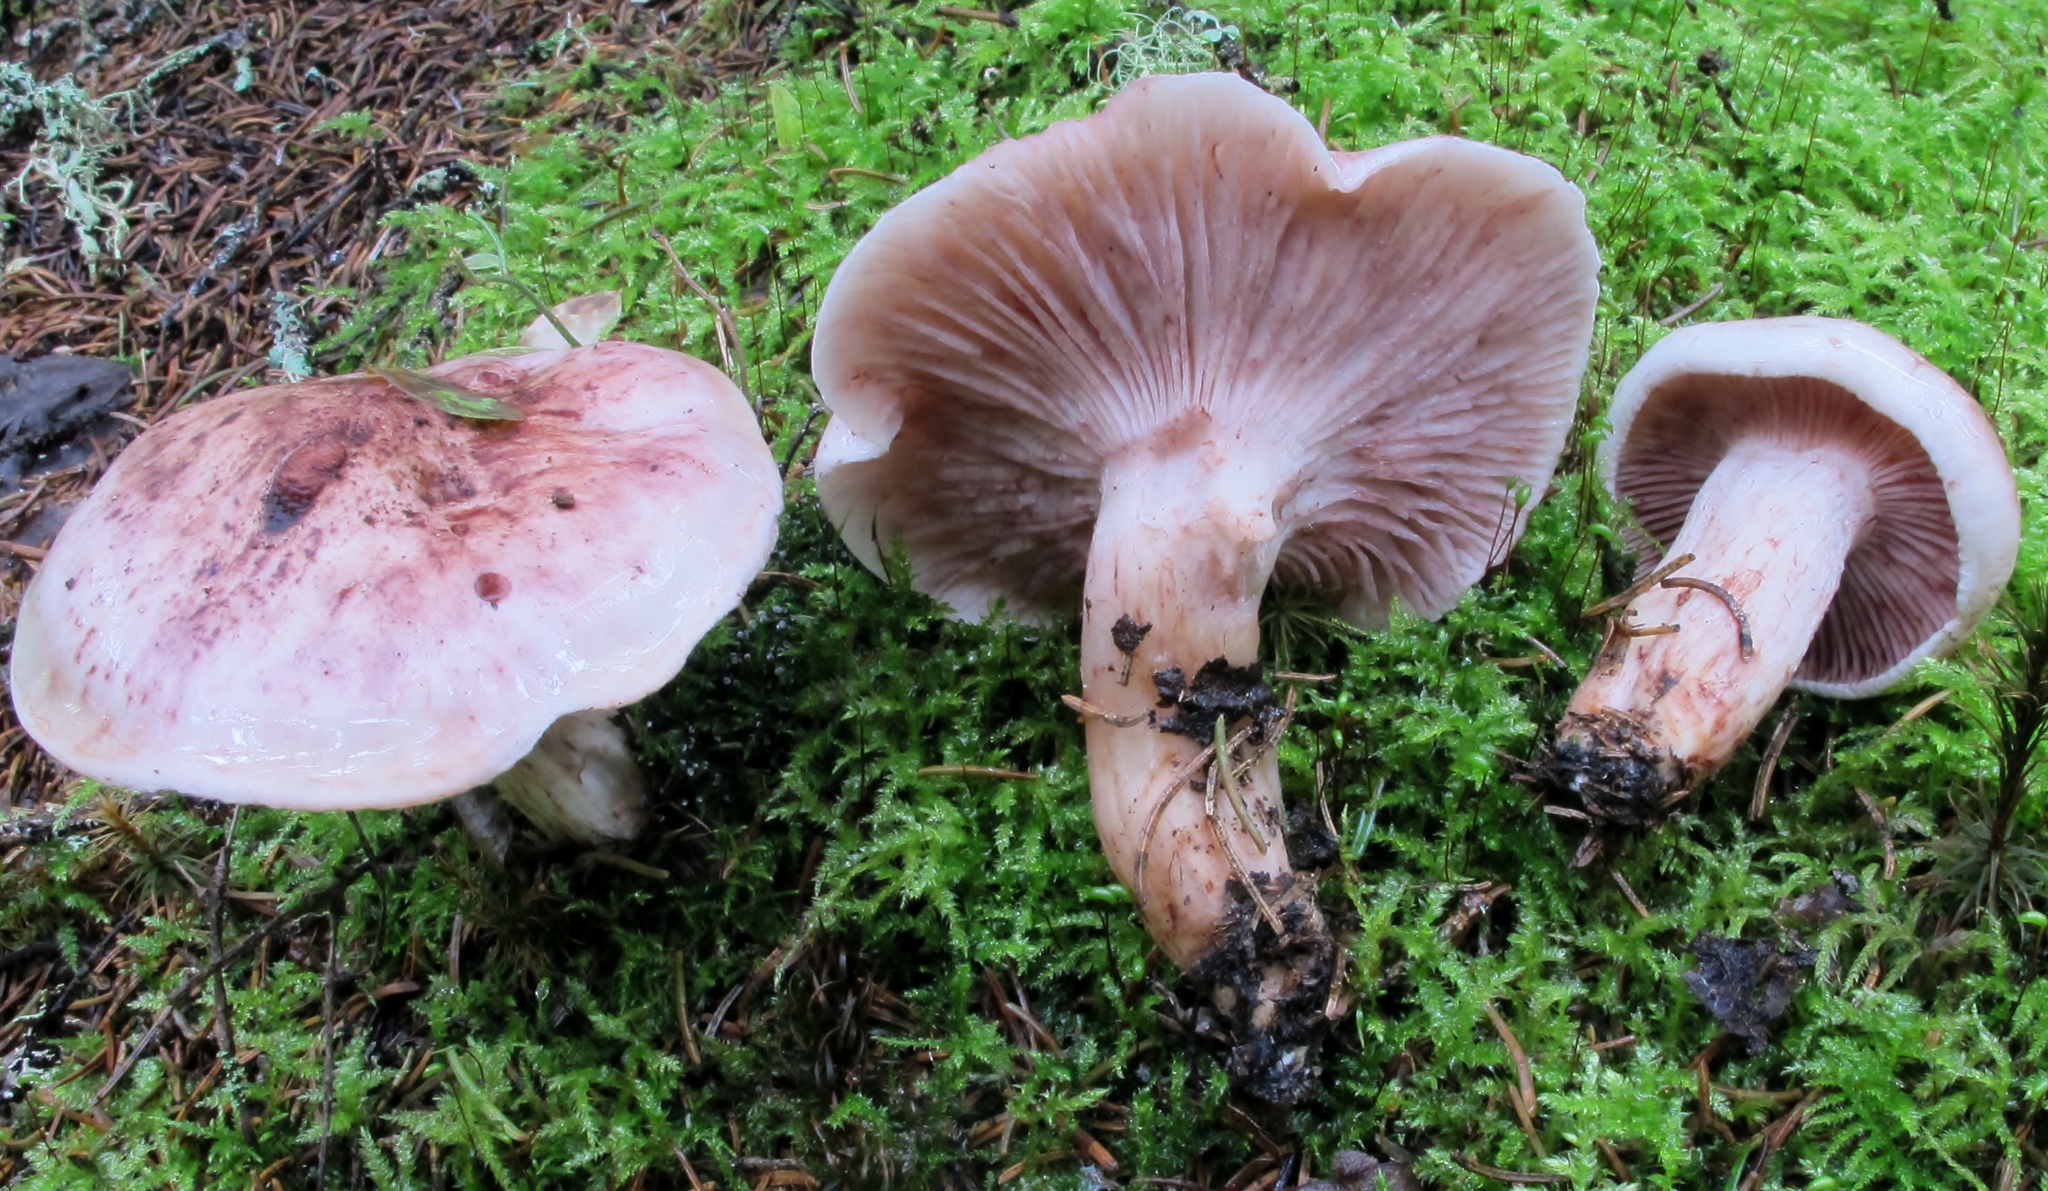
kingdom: Fungi
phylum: Basidiomycota
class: Agaricomycetes
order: Agaricales
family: Hygrophoraceae
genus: Hygrophorus
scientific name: Hygrophorus capreolarius
